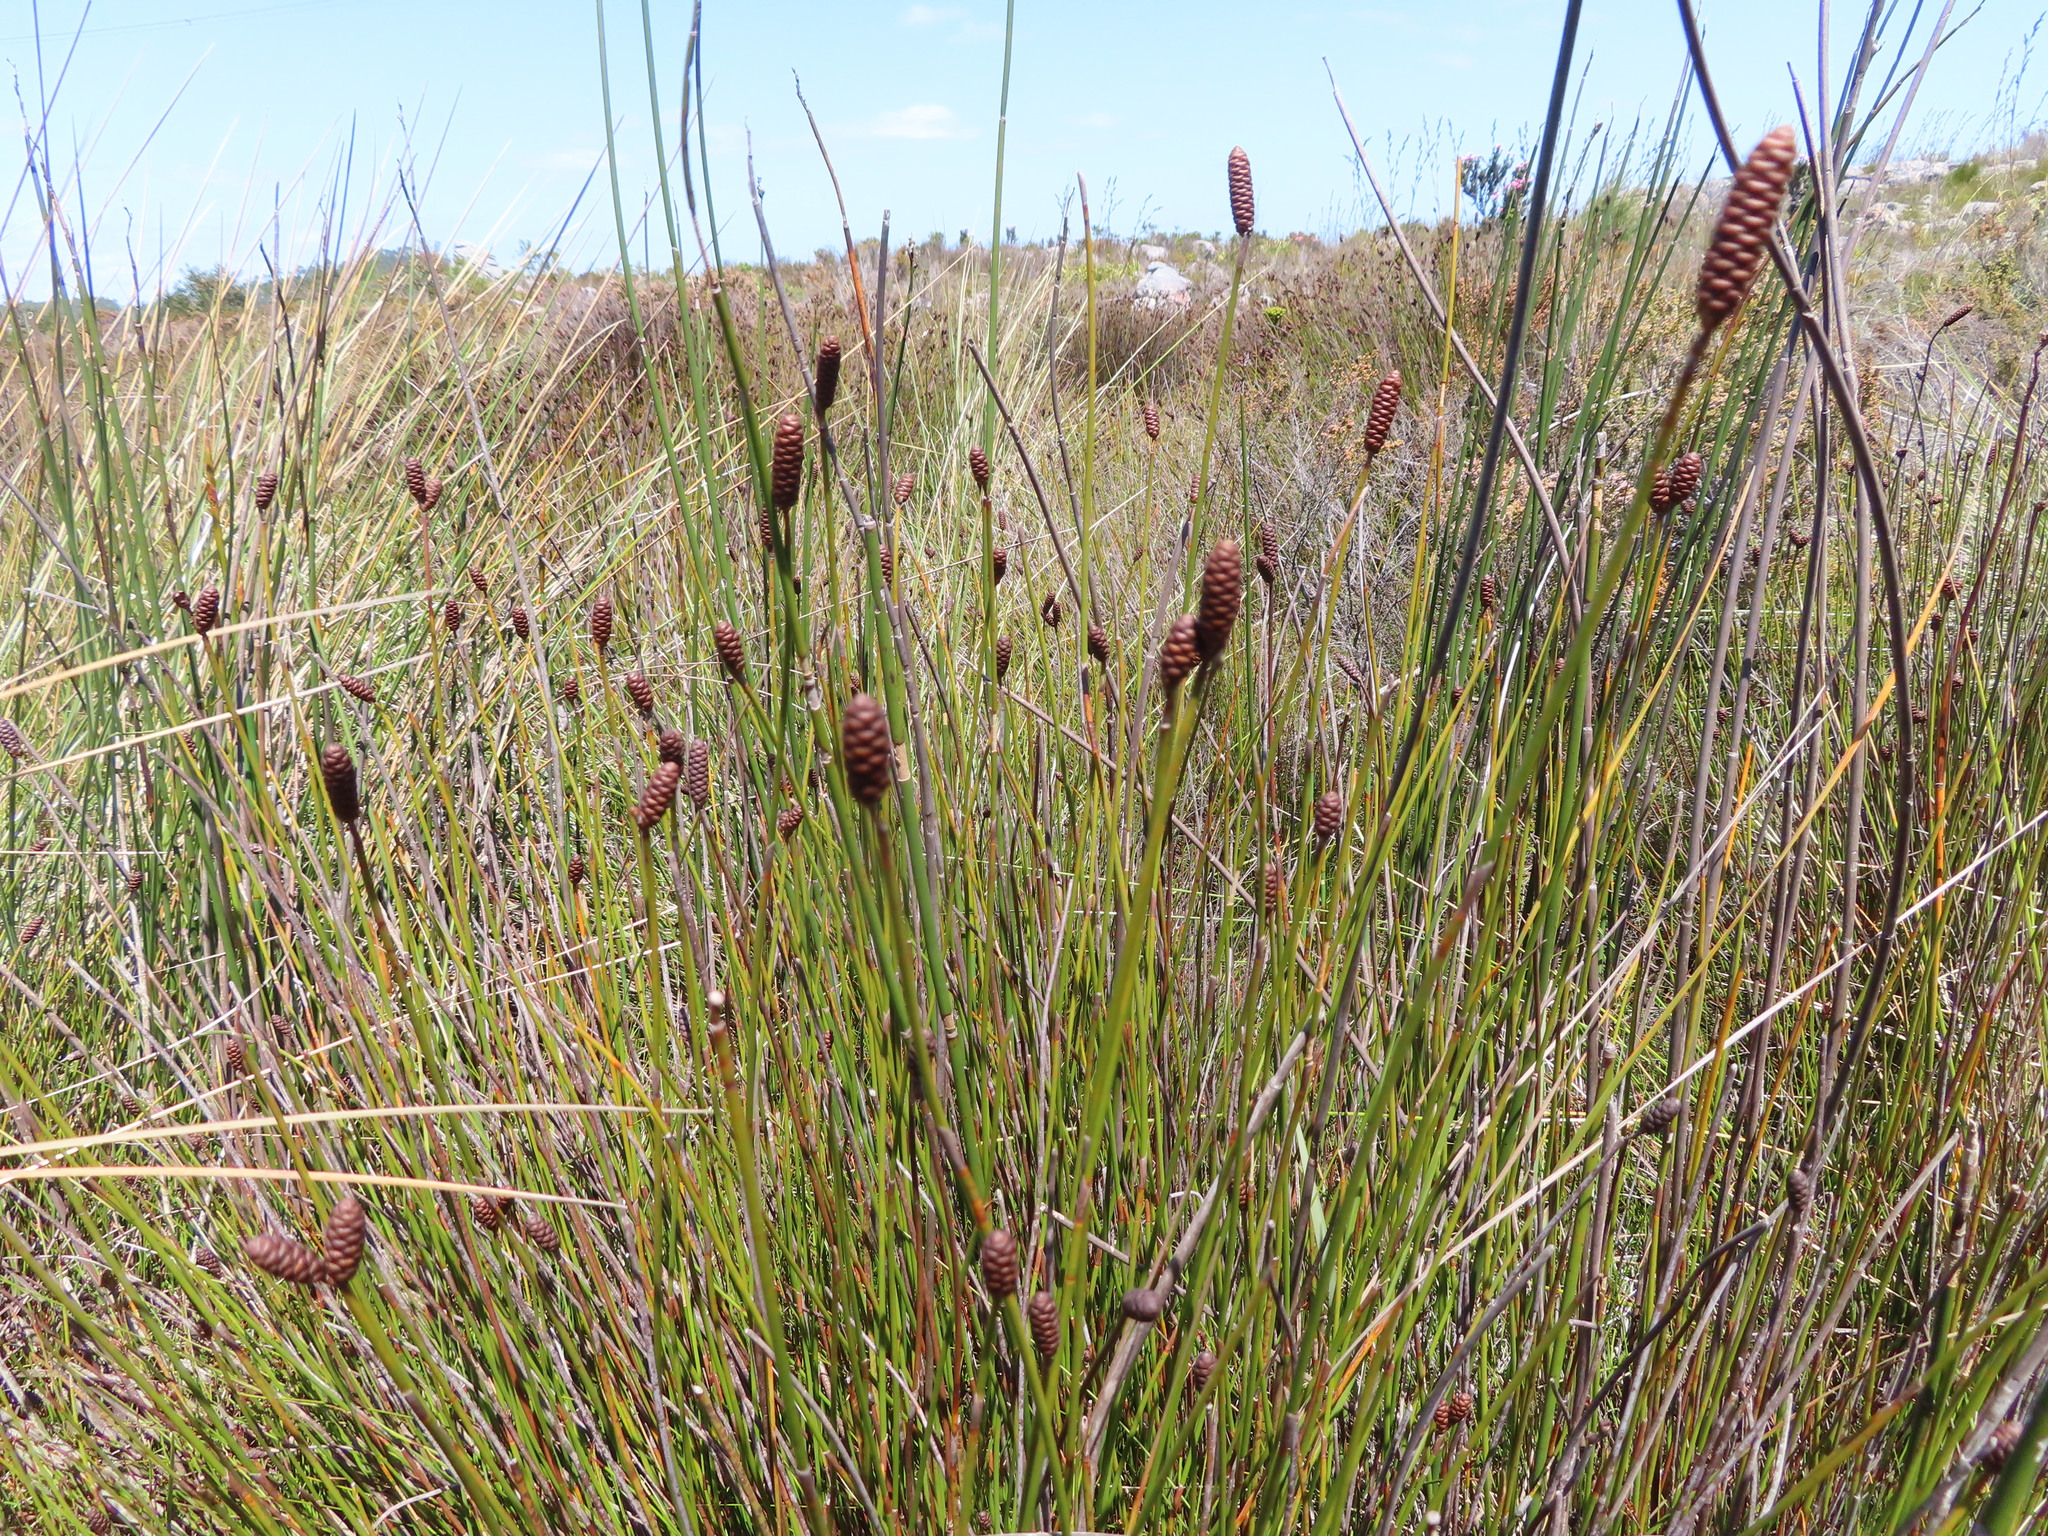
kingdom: Plantae
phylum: Tracheophyta
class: Liliopsida
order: Poales
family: Restionaceae
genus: Nevillea
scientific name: Nevillea obtusissimus
